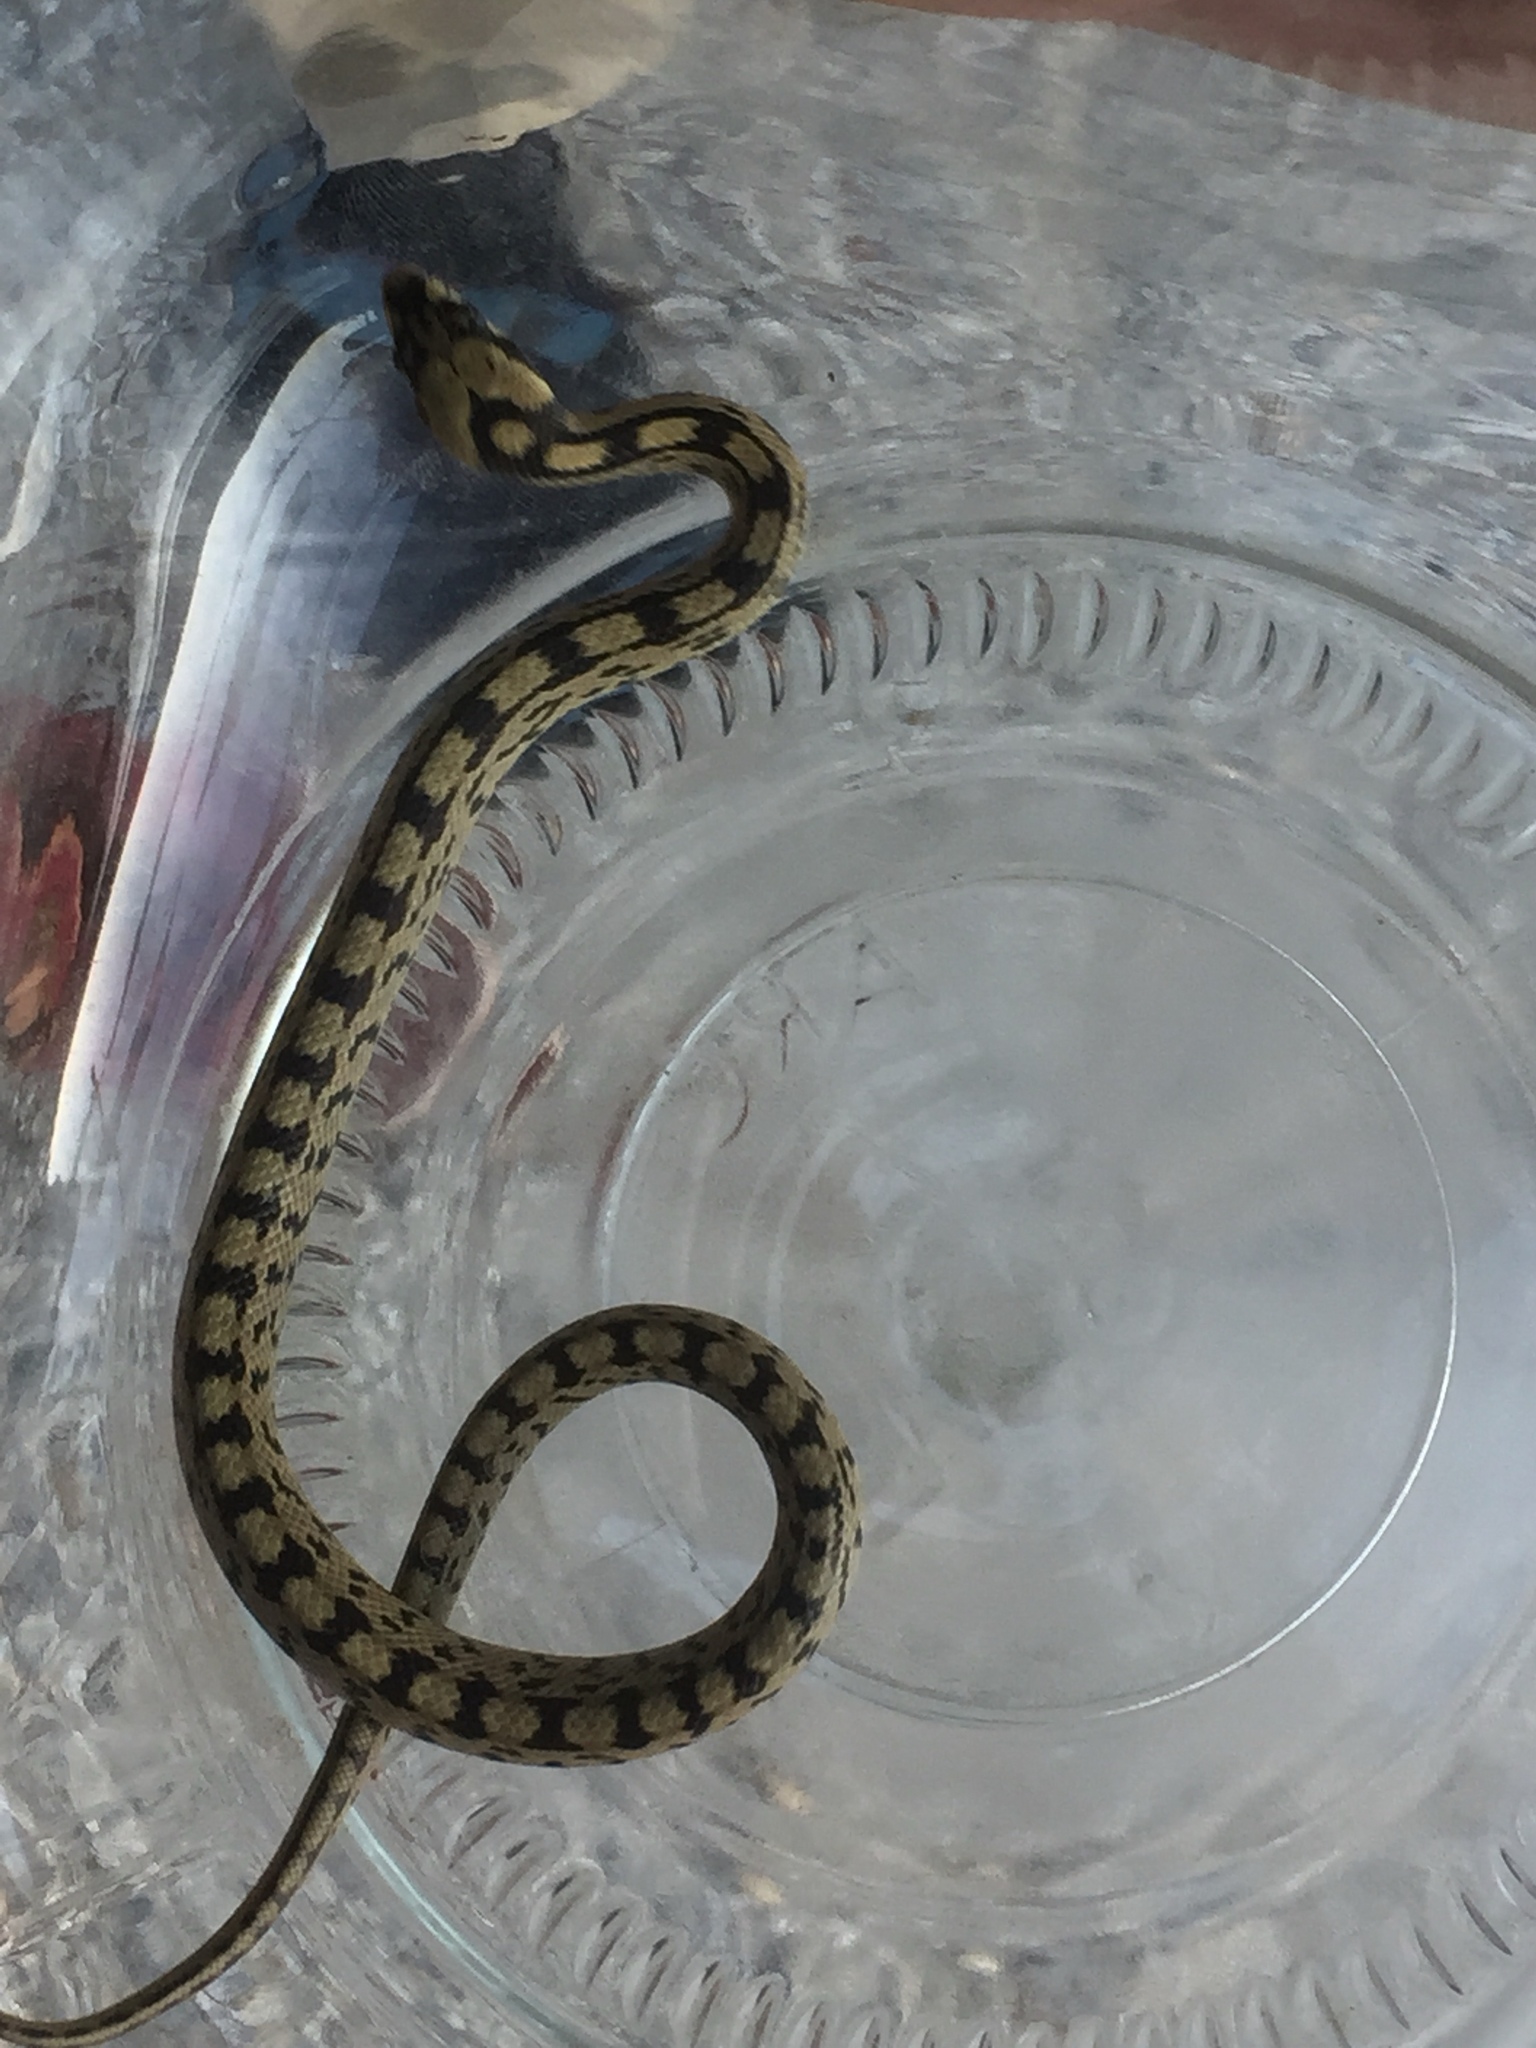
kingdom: Animalia
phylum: Chordata
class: Squamata
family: Colubridae
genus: Zamenis
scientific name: Zamenis scalaris
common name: Ladder snakes
